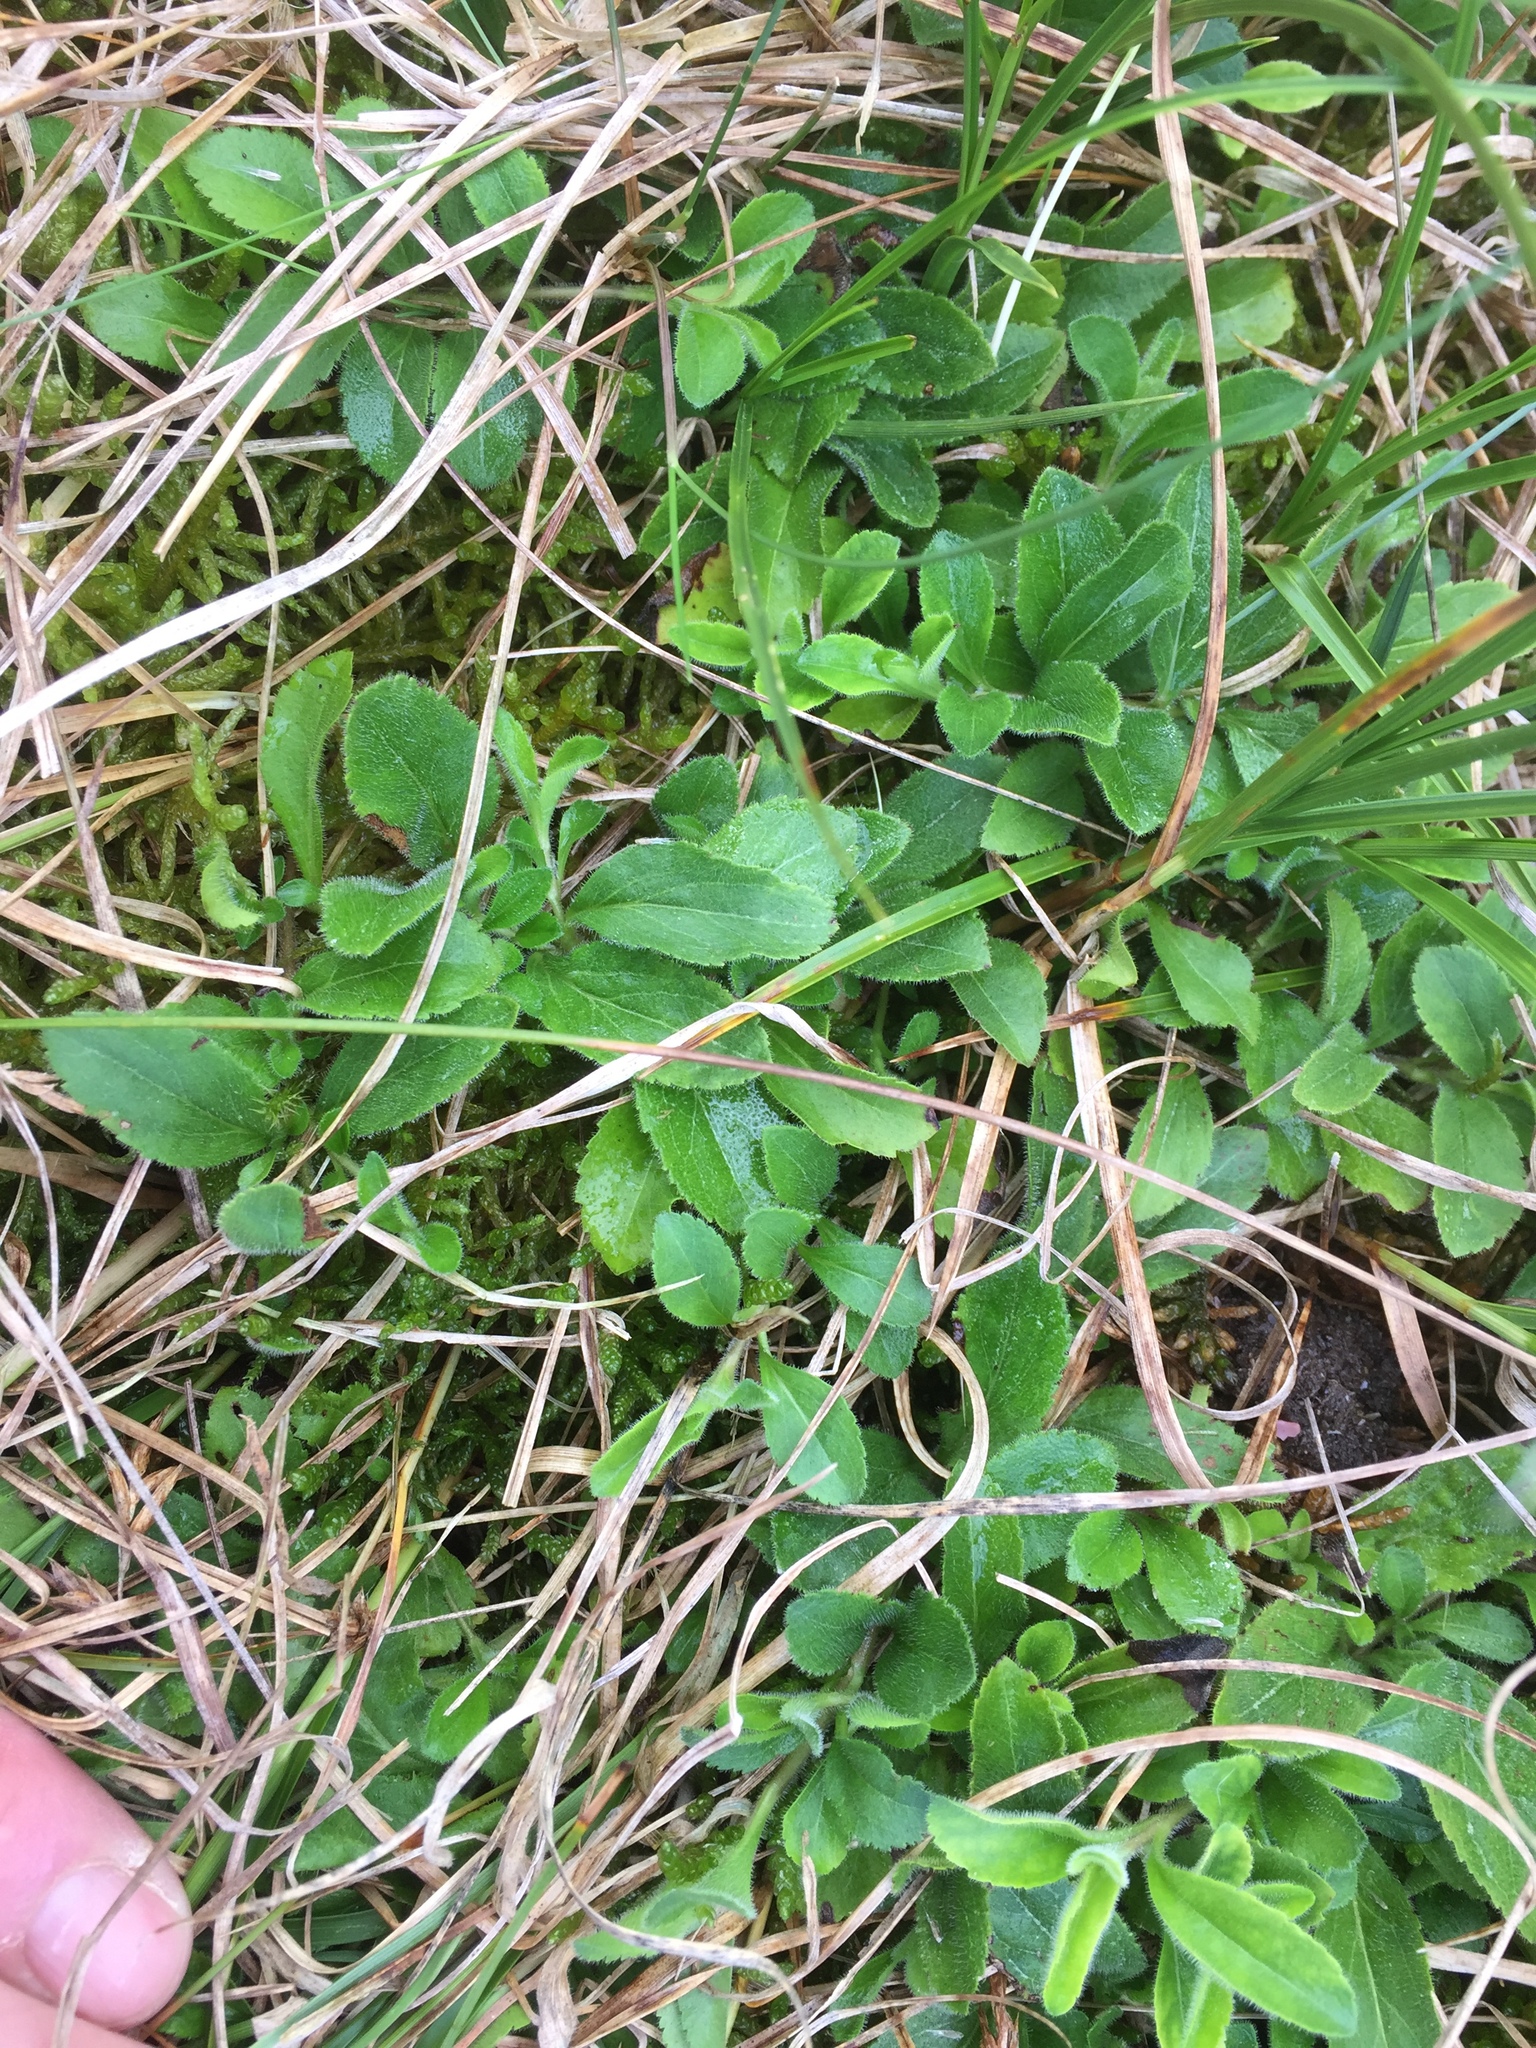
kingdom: Plantae
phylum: Tracheophyta
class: Magnoliopsida
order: Lamiales
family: Plantaginaceae
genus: Veronica
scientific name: Veronica officinalis
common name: Common speedwell
